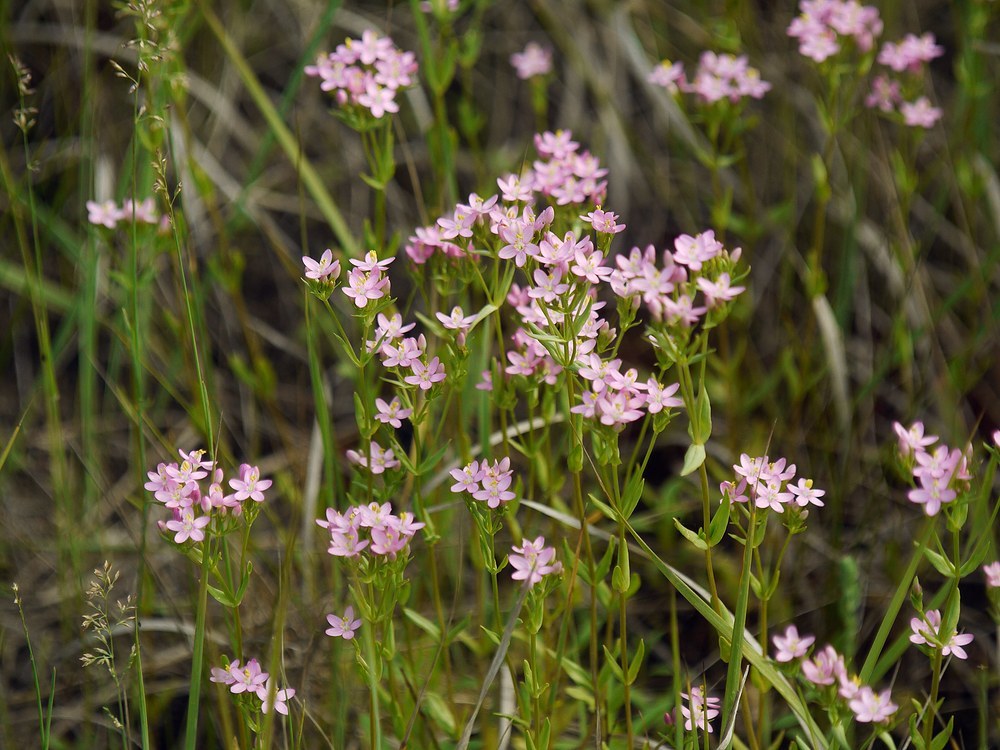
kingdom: Plantae
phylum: Tracheophyta
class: Magnoliopsida
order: Gentianales
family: Gentianaceae
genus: Centaurium
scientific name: Centaurium erythraea
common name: Common centaury
